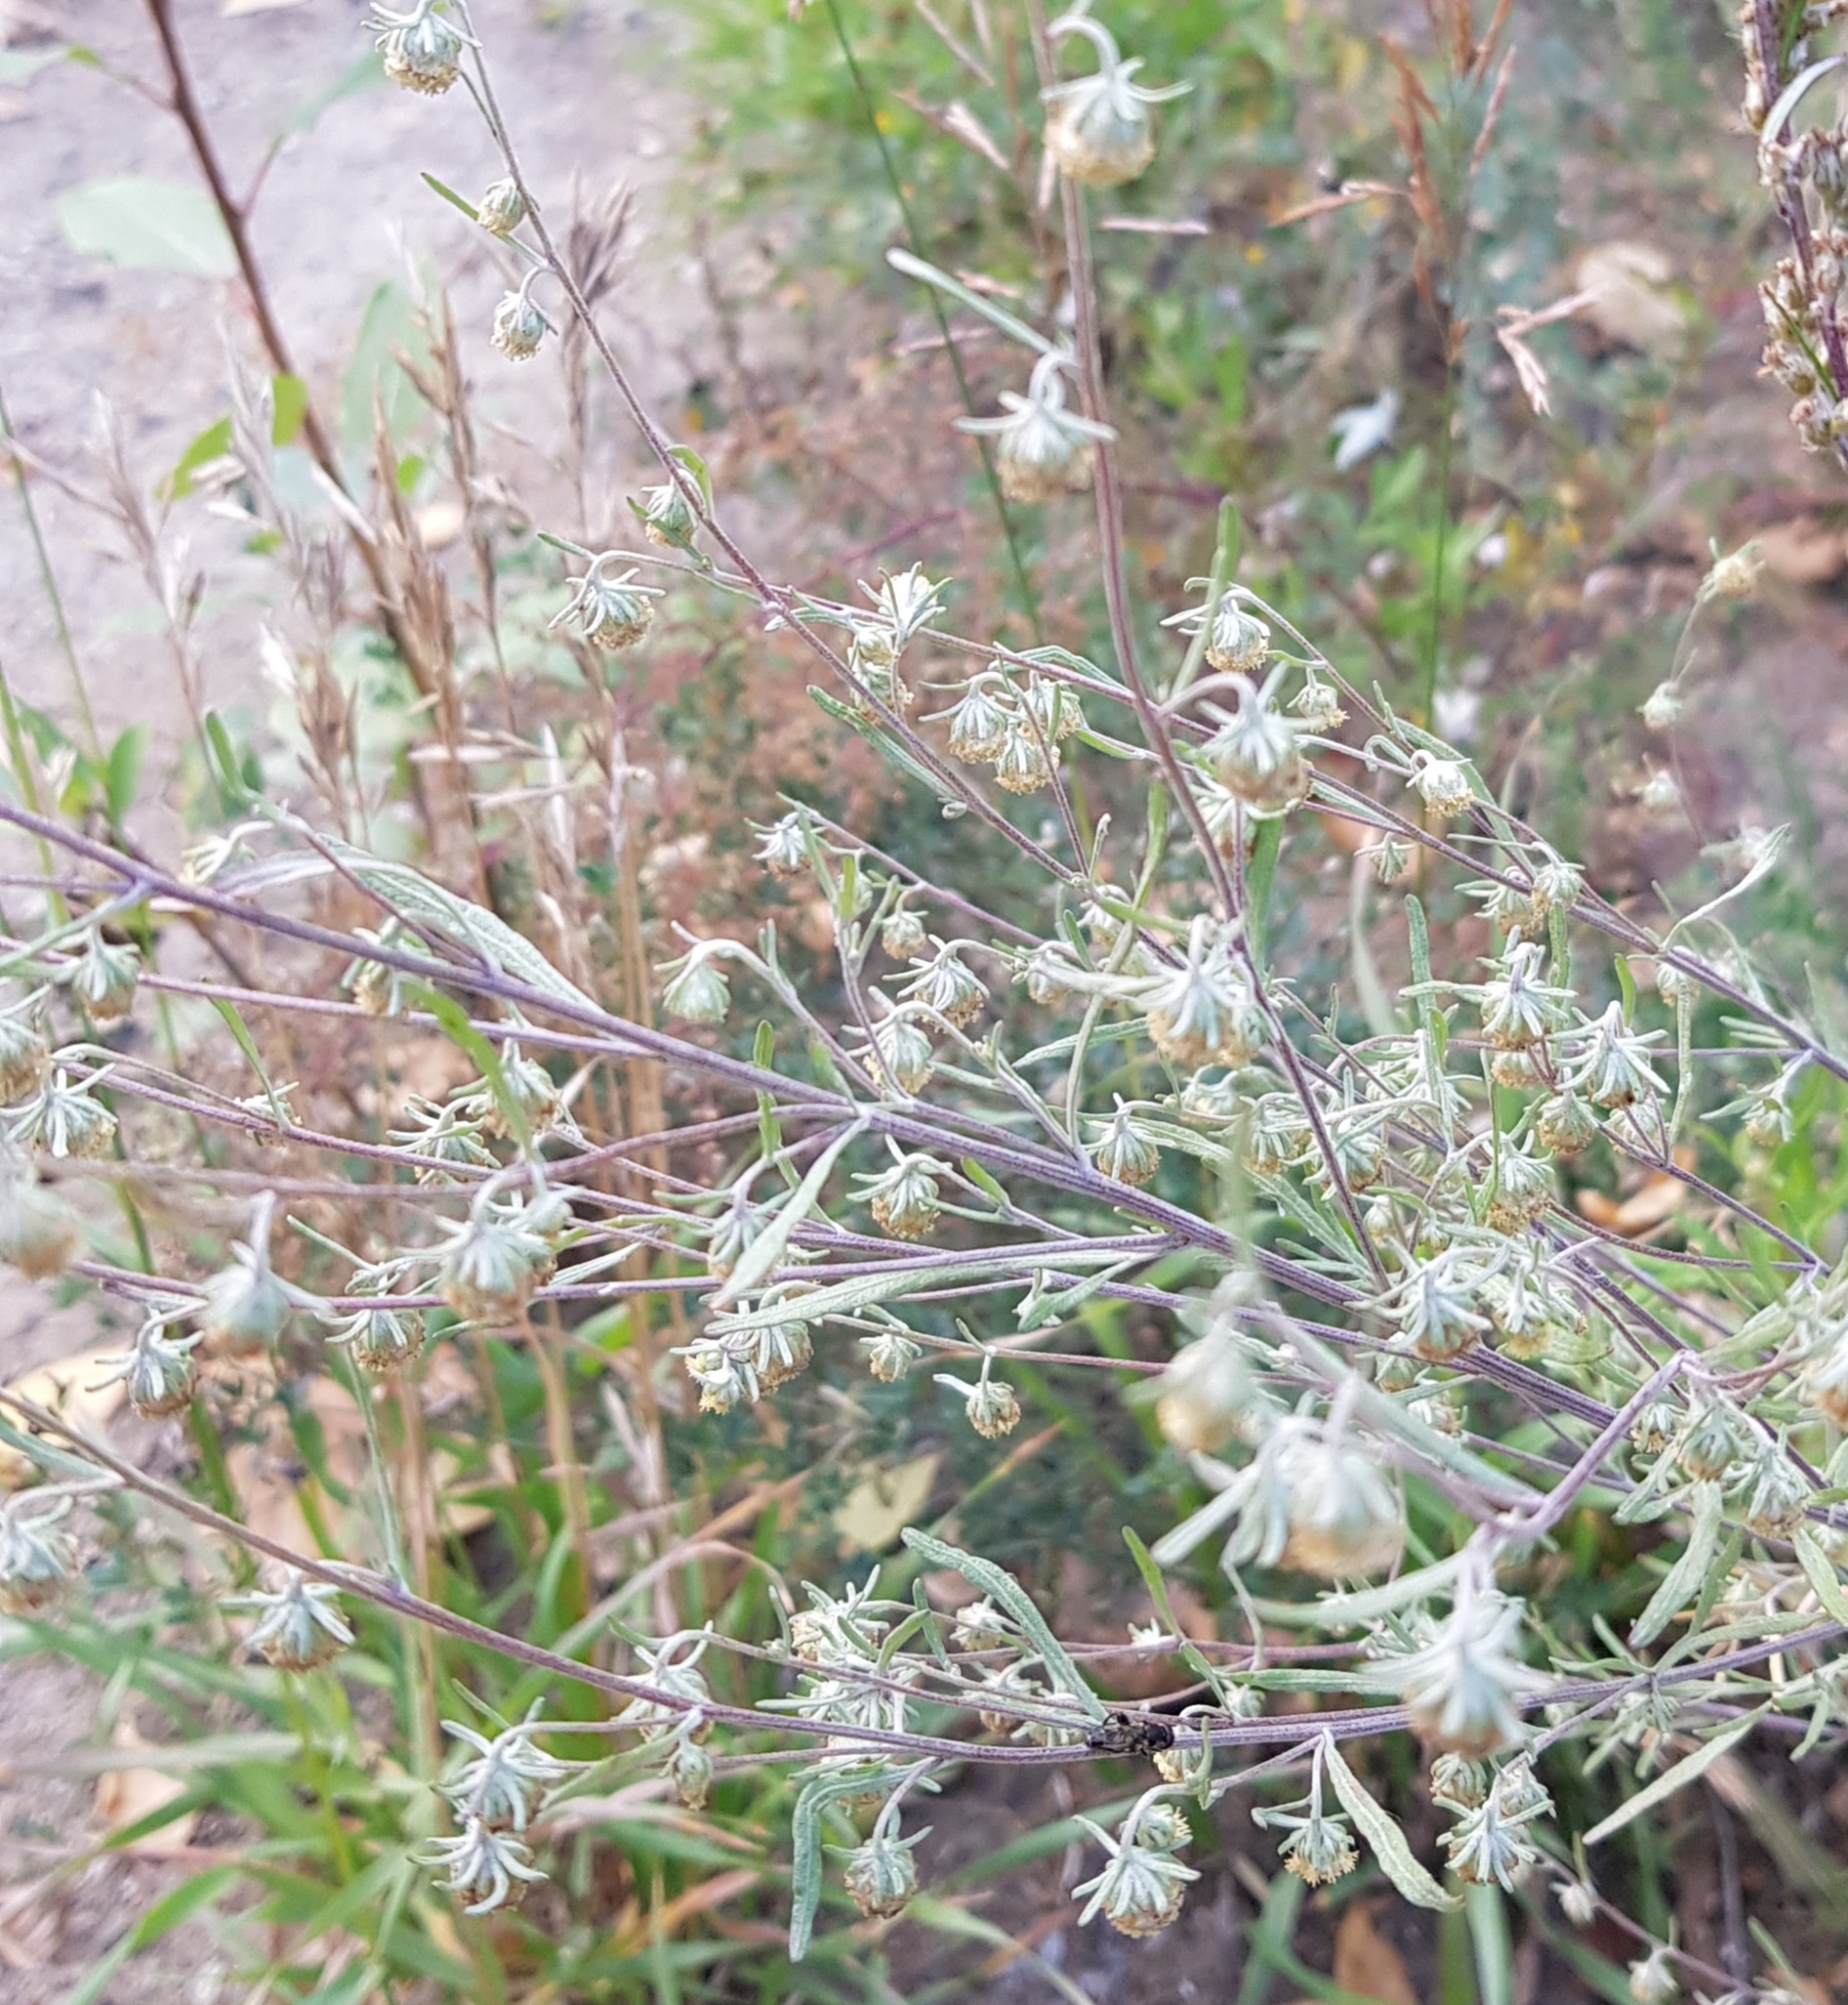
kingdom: Plantae
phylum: Tracheophyta
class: Magnoliopsida
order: Asterales
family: Asteraceae
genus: Artemisia
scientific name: Artemisia sieversiana
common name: Sieversian wormwood
